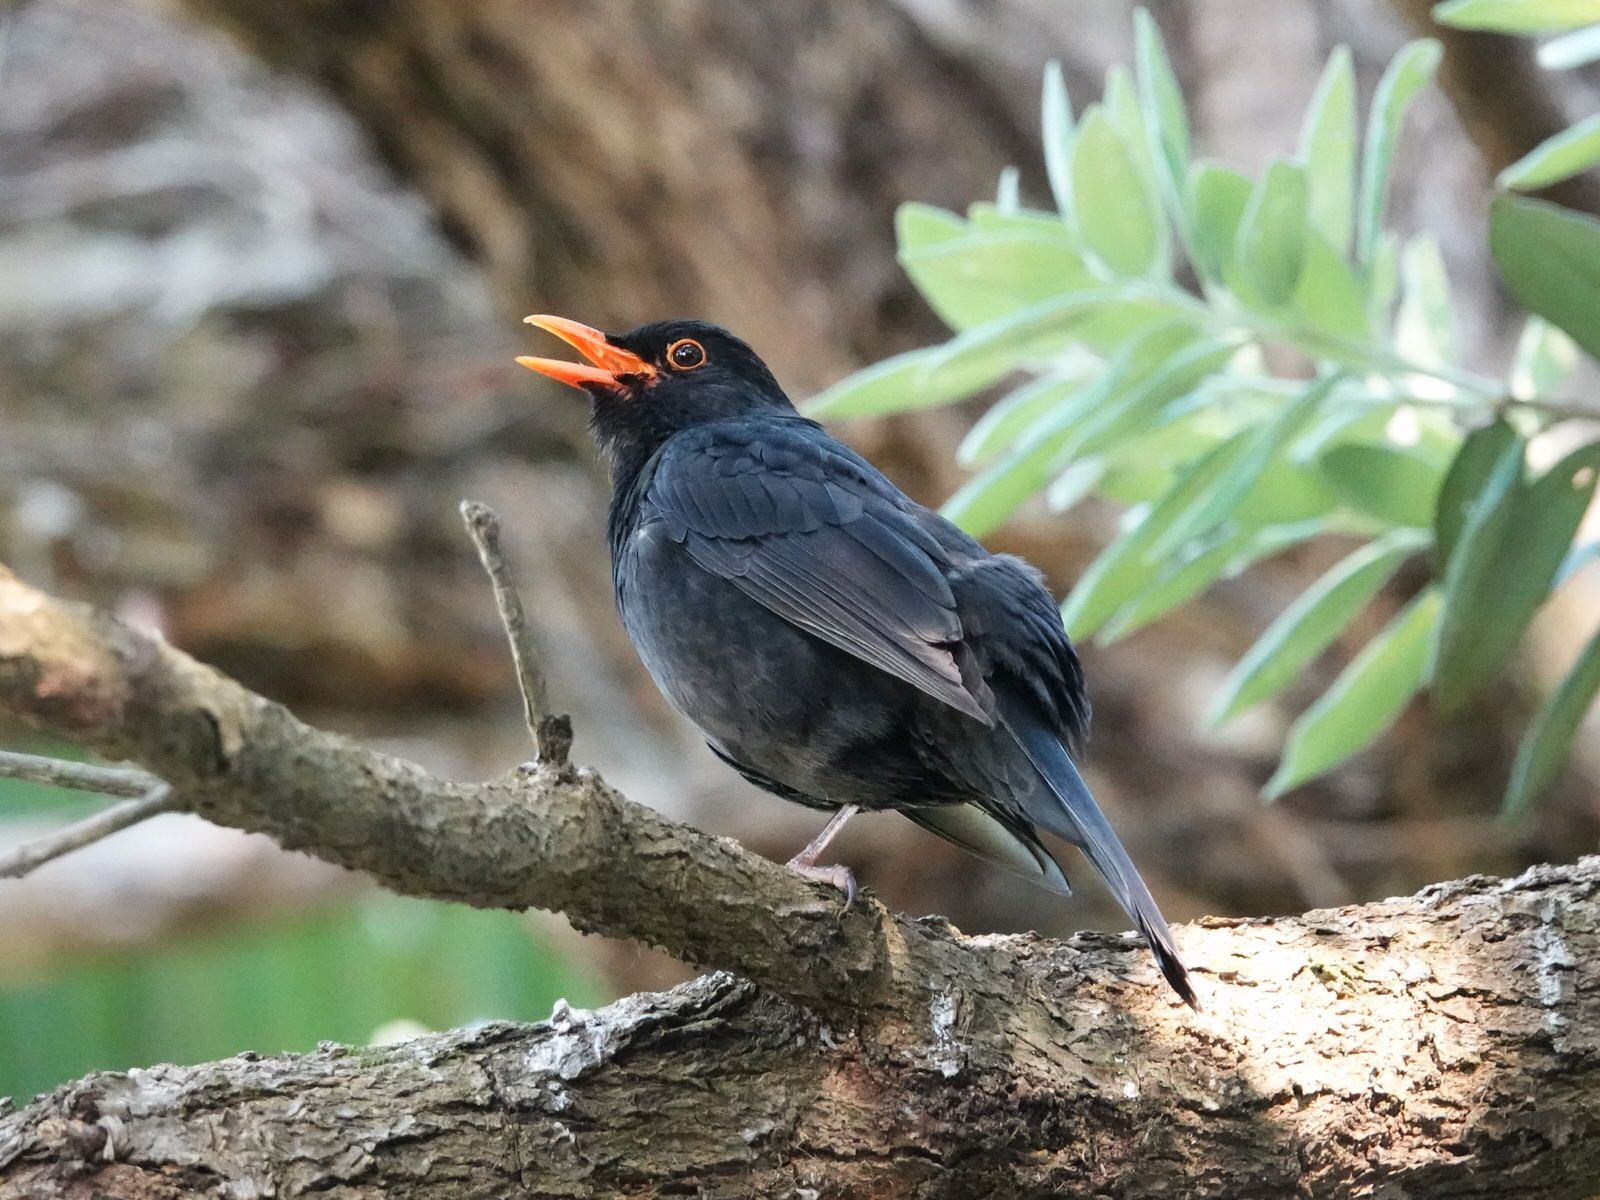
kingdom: Animalia
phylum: Chordata
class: Aves
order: Passeriformes
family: Turdidae
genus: Turdus
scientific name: Turdus merula
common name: Common blackbird
